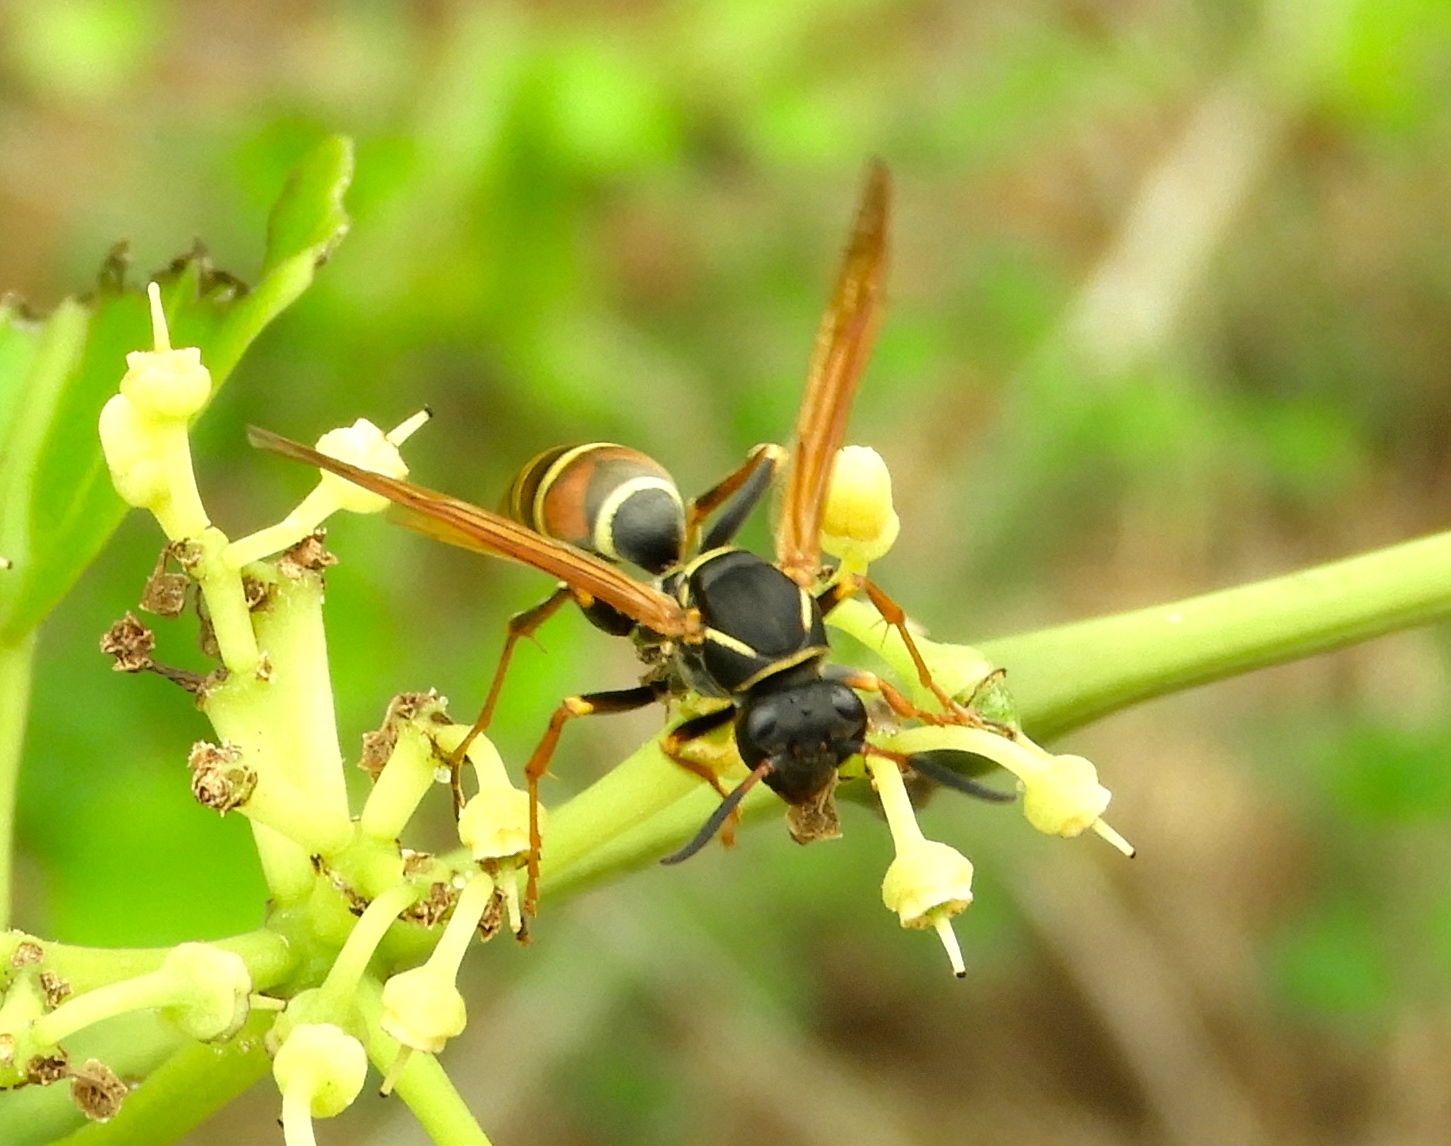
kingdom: Animalia
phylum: Arthropoda
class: Insecta
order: Hymenoptera
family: Eumenidae
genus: Polistes
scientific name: Polistes pacificus
